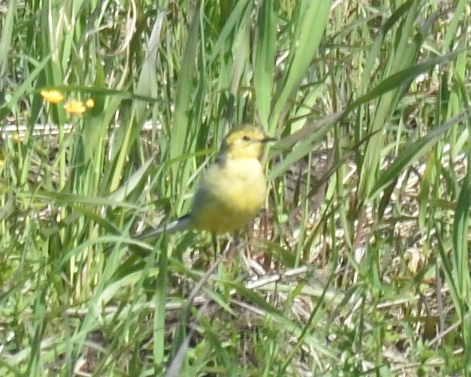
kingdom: Animalia
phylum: Chordata
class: Aves
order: Passeriformes
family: Motacillidae
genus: Motacilla
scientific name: Motacilla citreola
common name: Citrine wagtail
